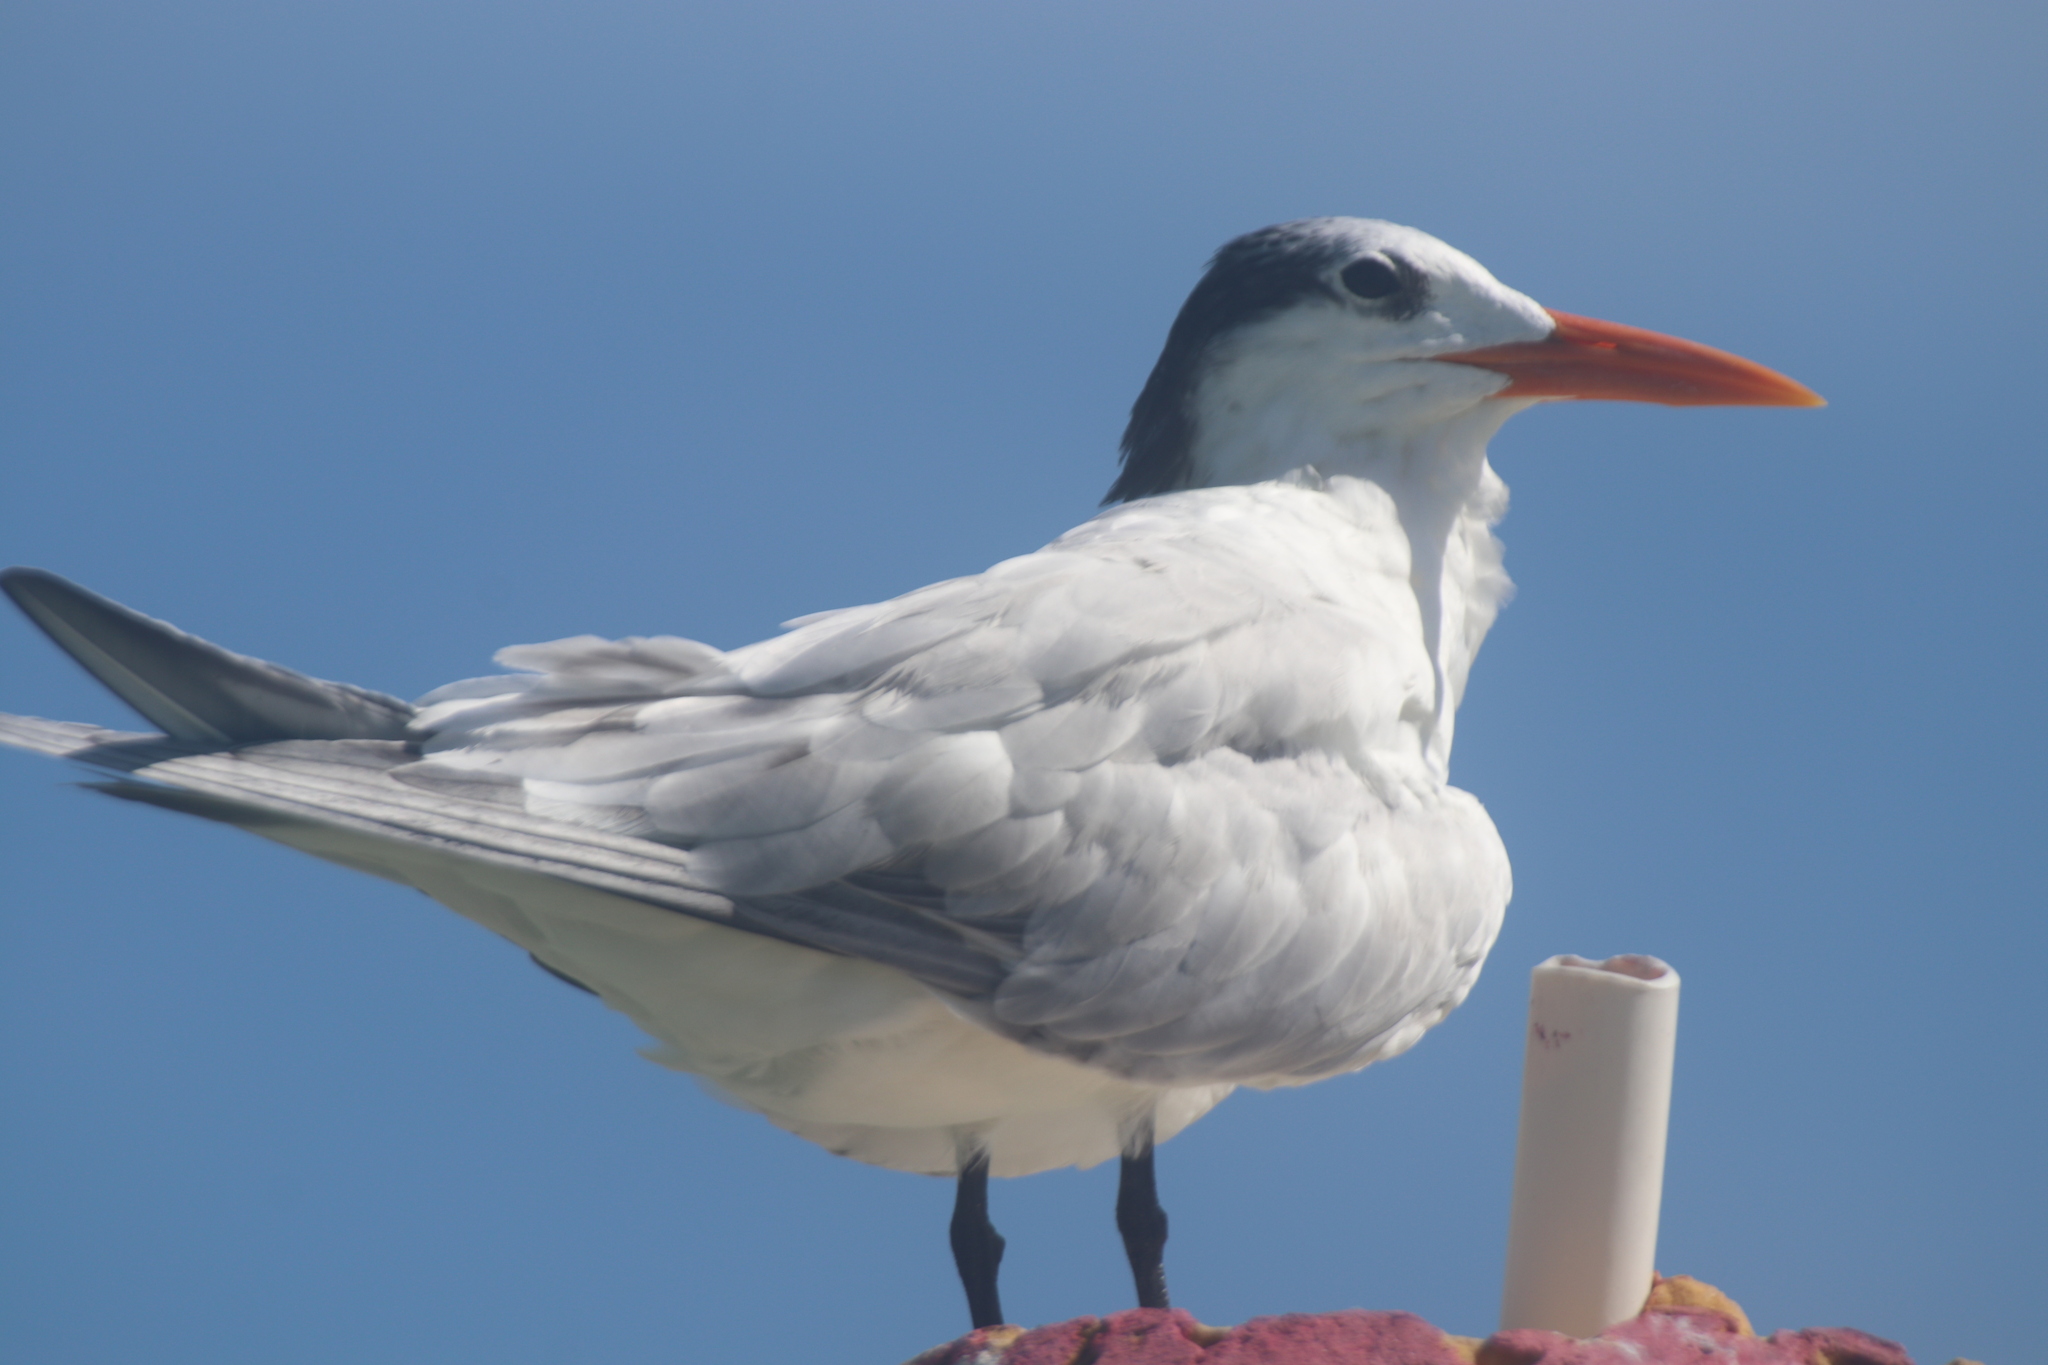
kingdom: Animalia
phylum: Chordata
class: Aves
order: Charadriiformes
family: Laridae
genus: Thalasseus
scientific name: Thalasseus maximus
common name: Royal tern
